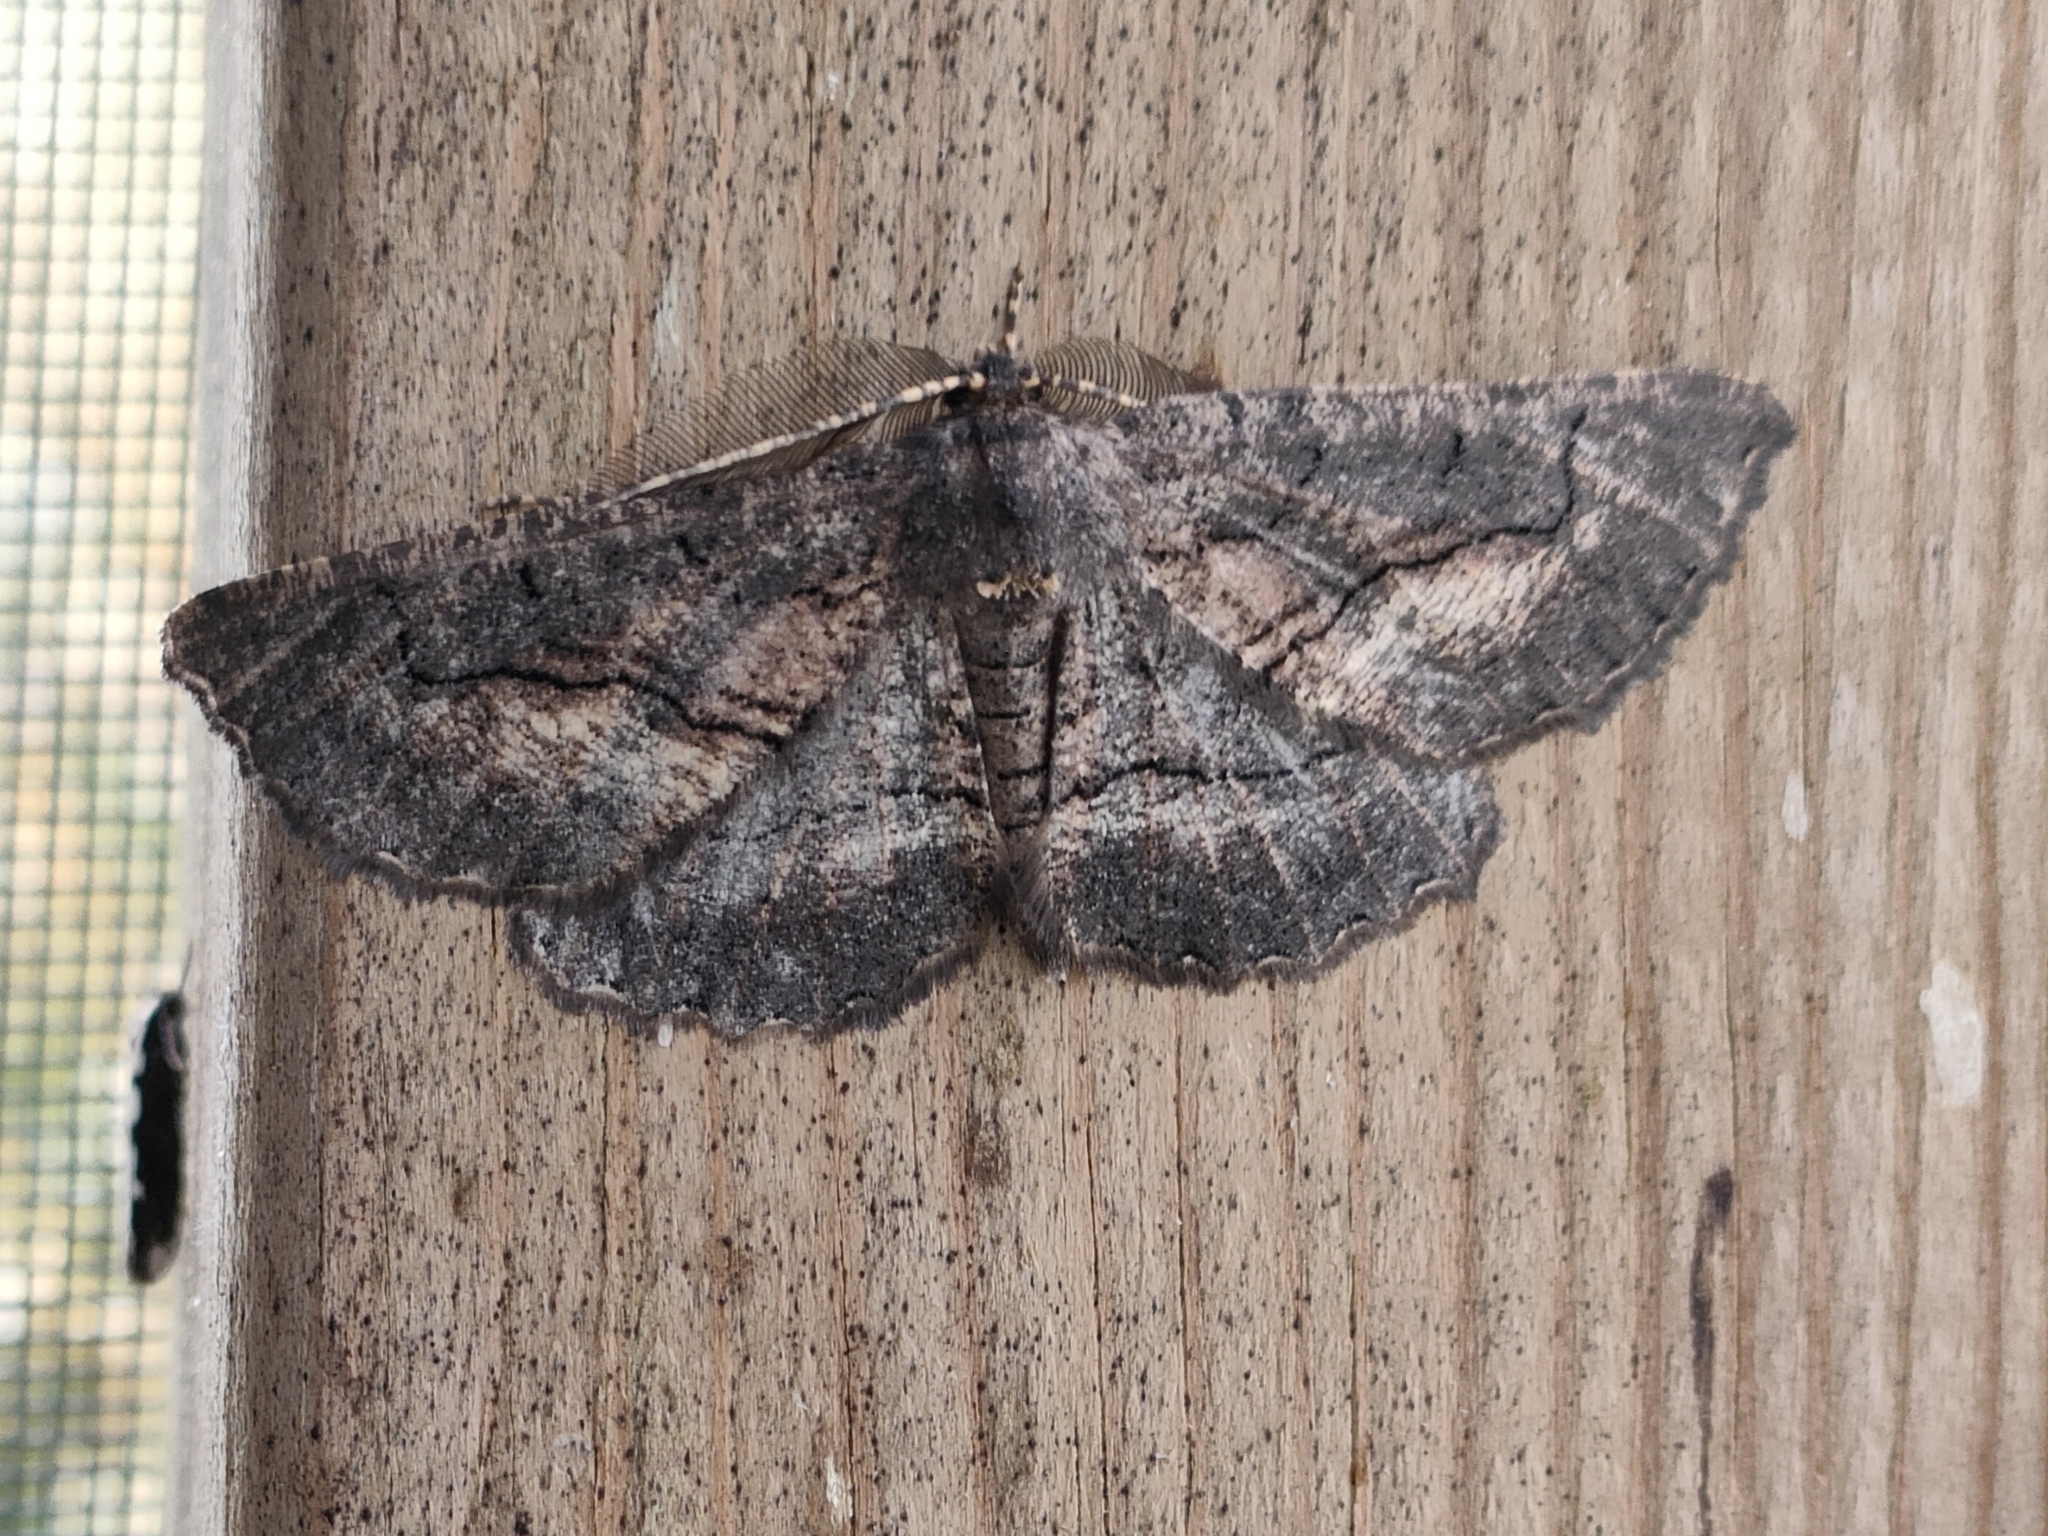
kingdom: Animalia
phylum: Arthropoda
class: Insecta
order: Lepidoptera
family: Geometridae
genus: Nychiodes
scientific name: Nychiodes notarioi
